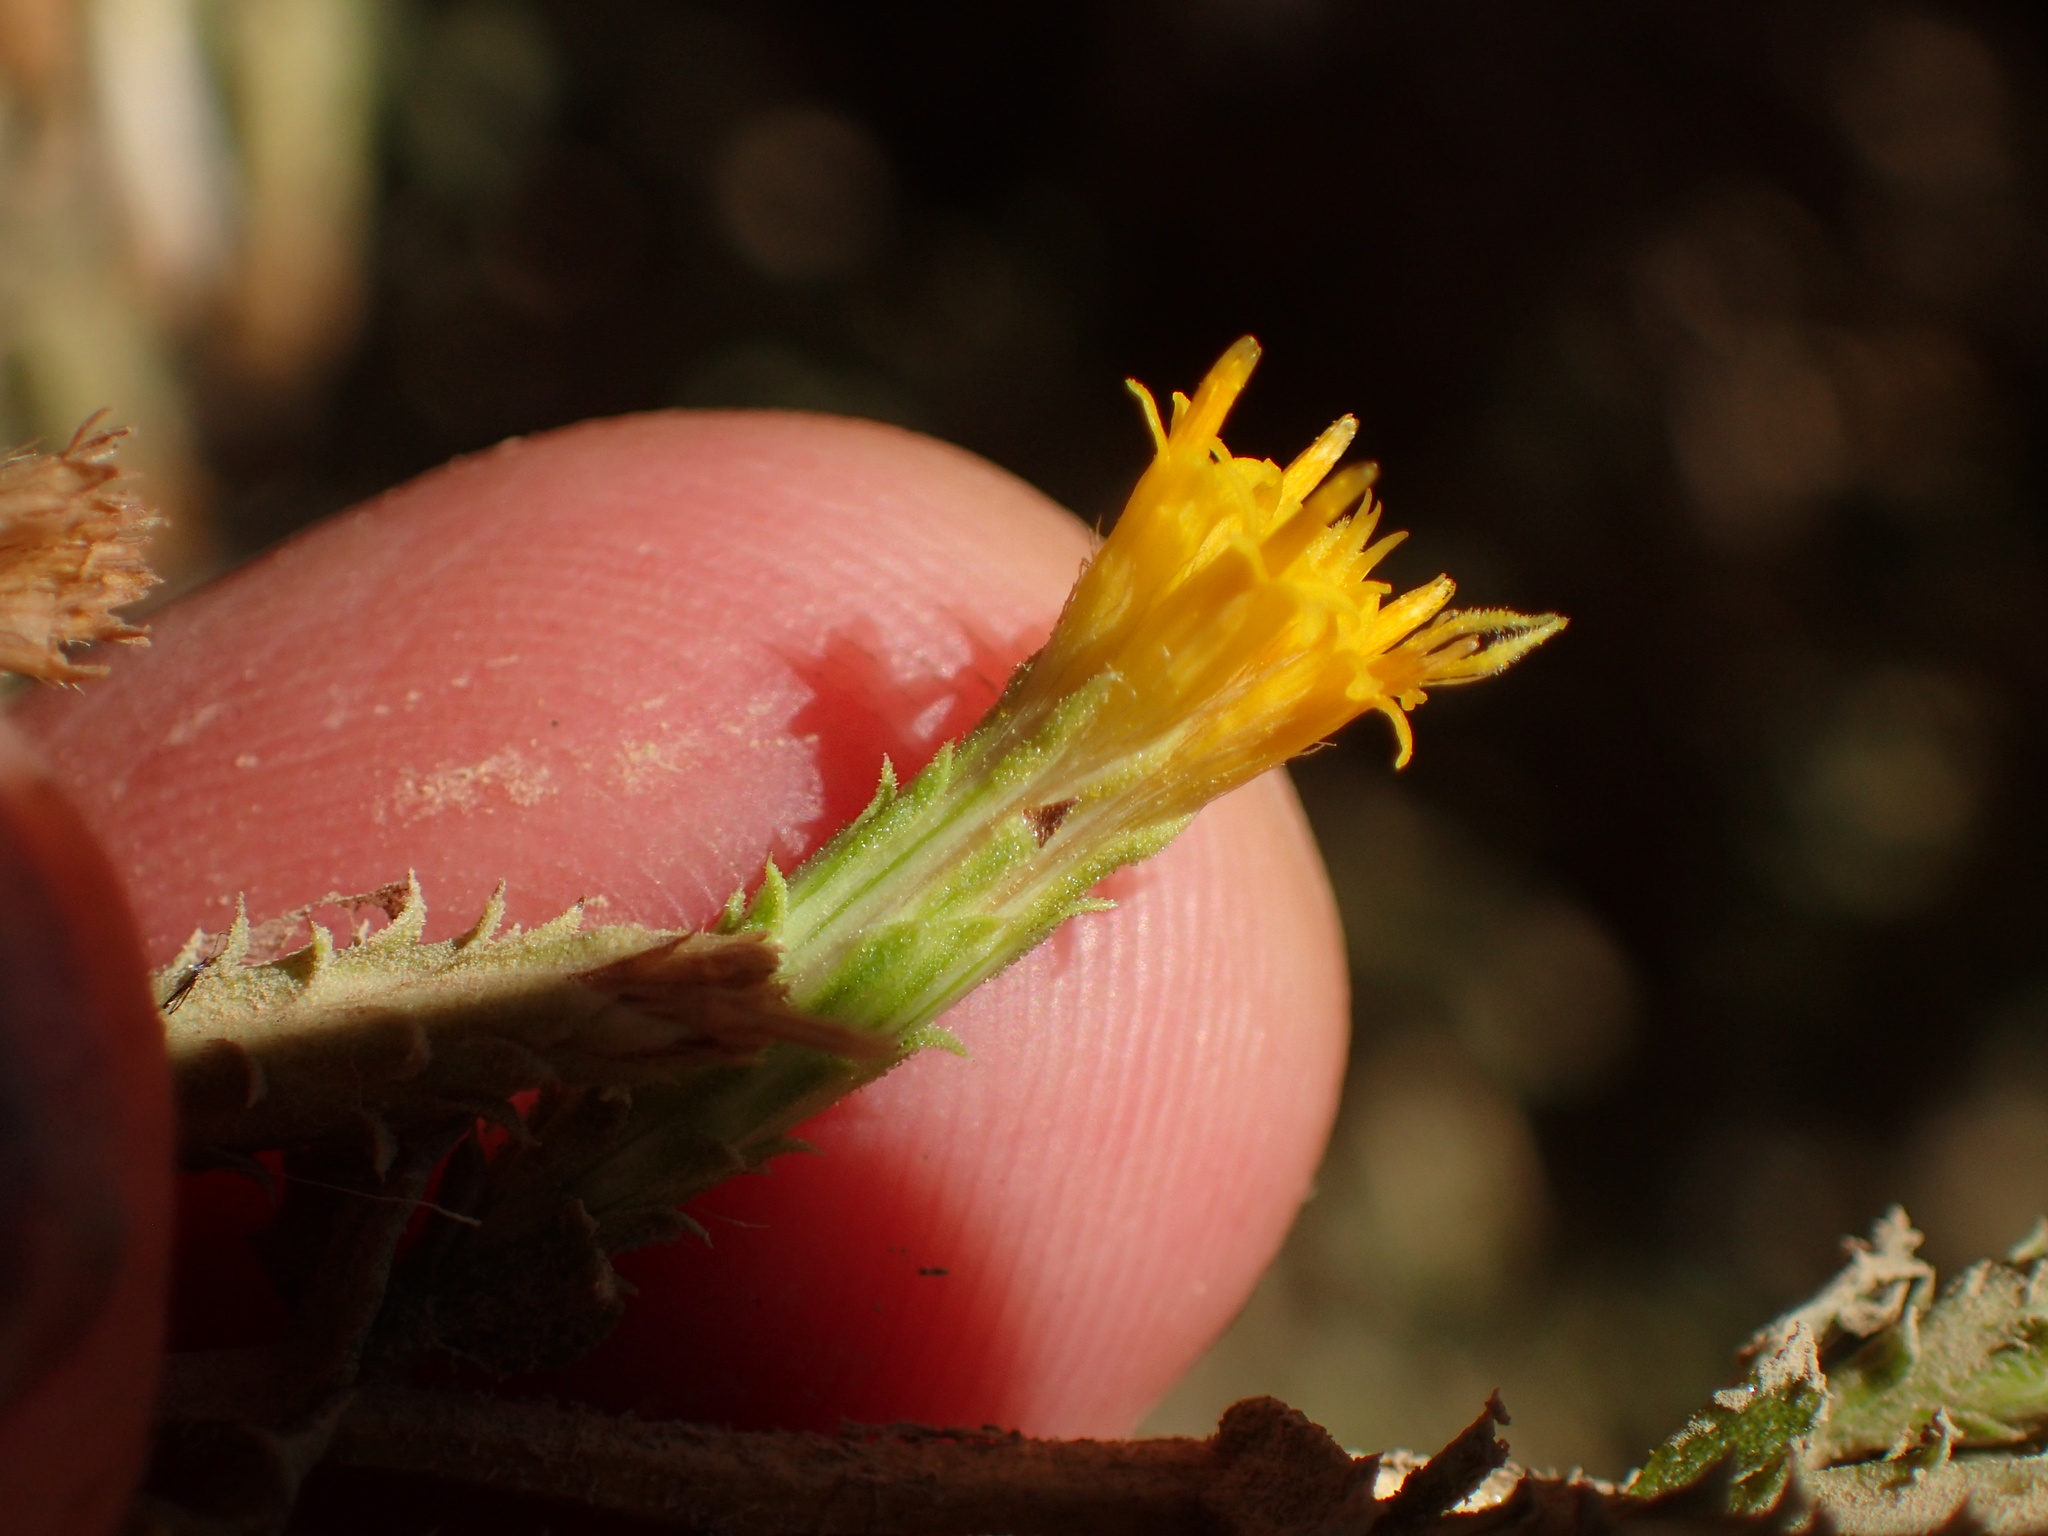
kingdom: Plantae
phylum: Tracheophyta
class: Magnoliopsida
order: Asterales
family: Asteraceae
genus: Hazardia
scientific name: Hazardia squarrosa
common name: Saw-tooth goldenbush
